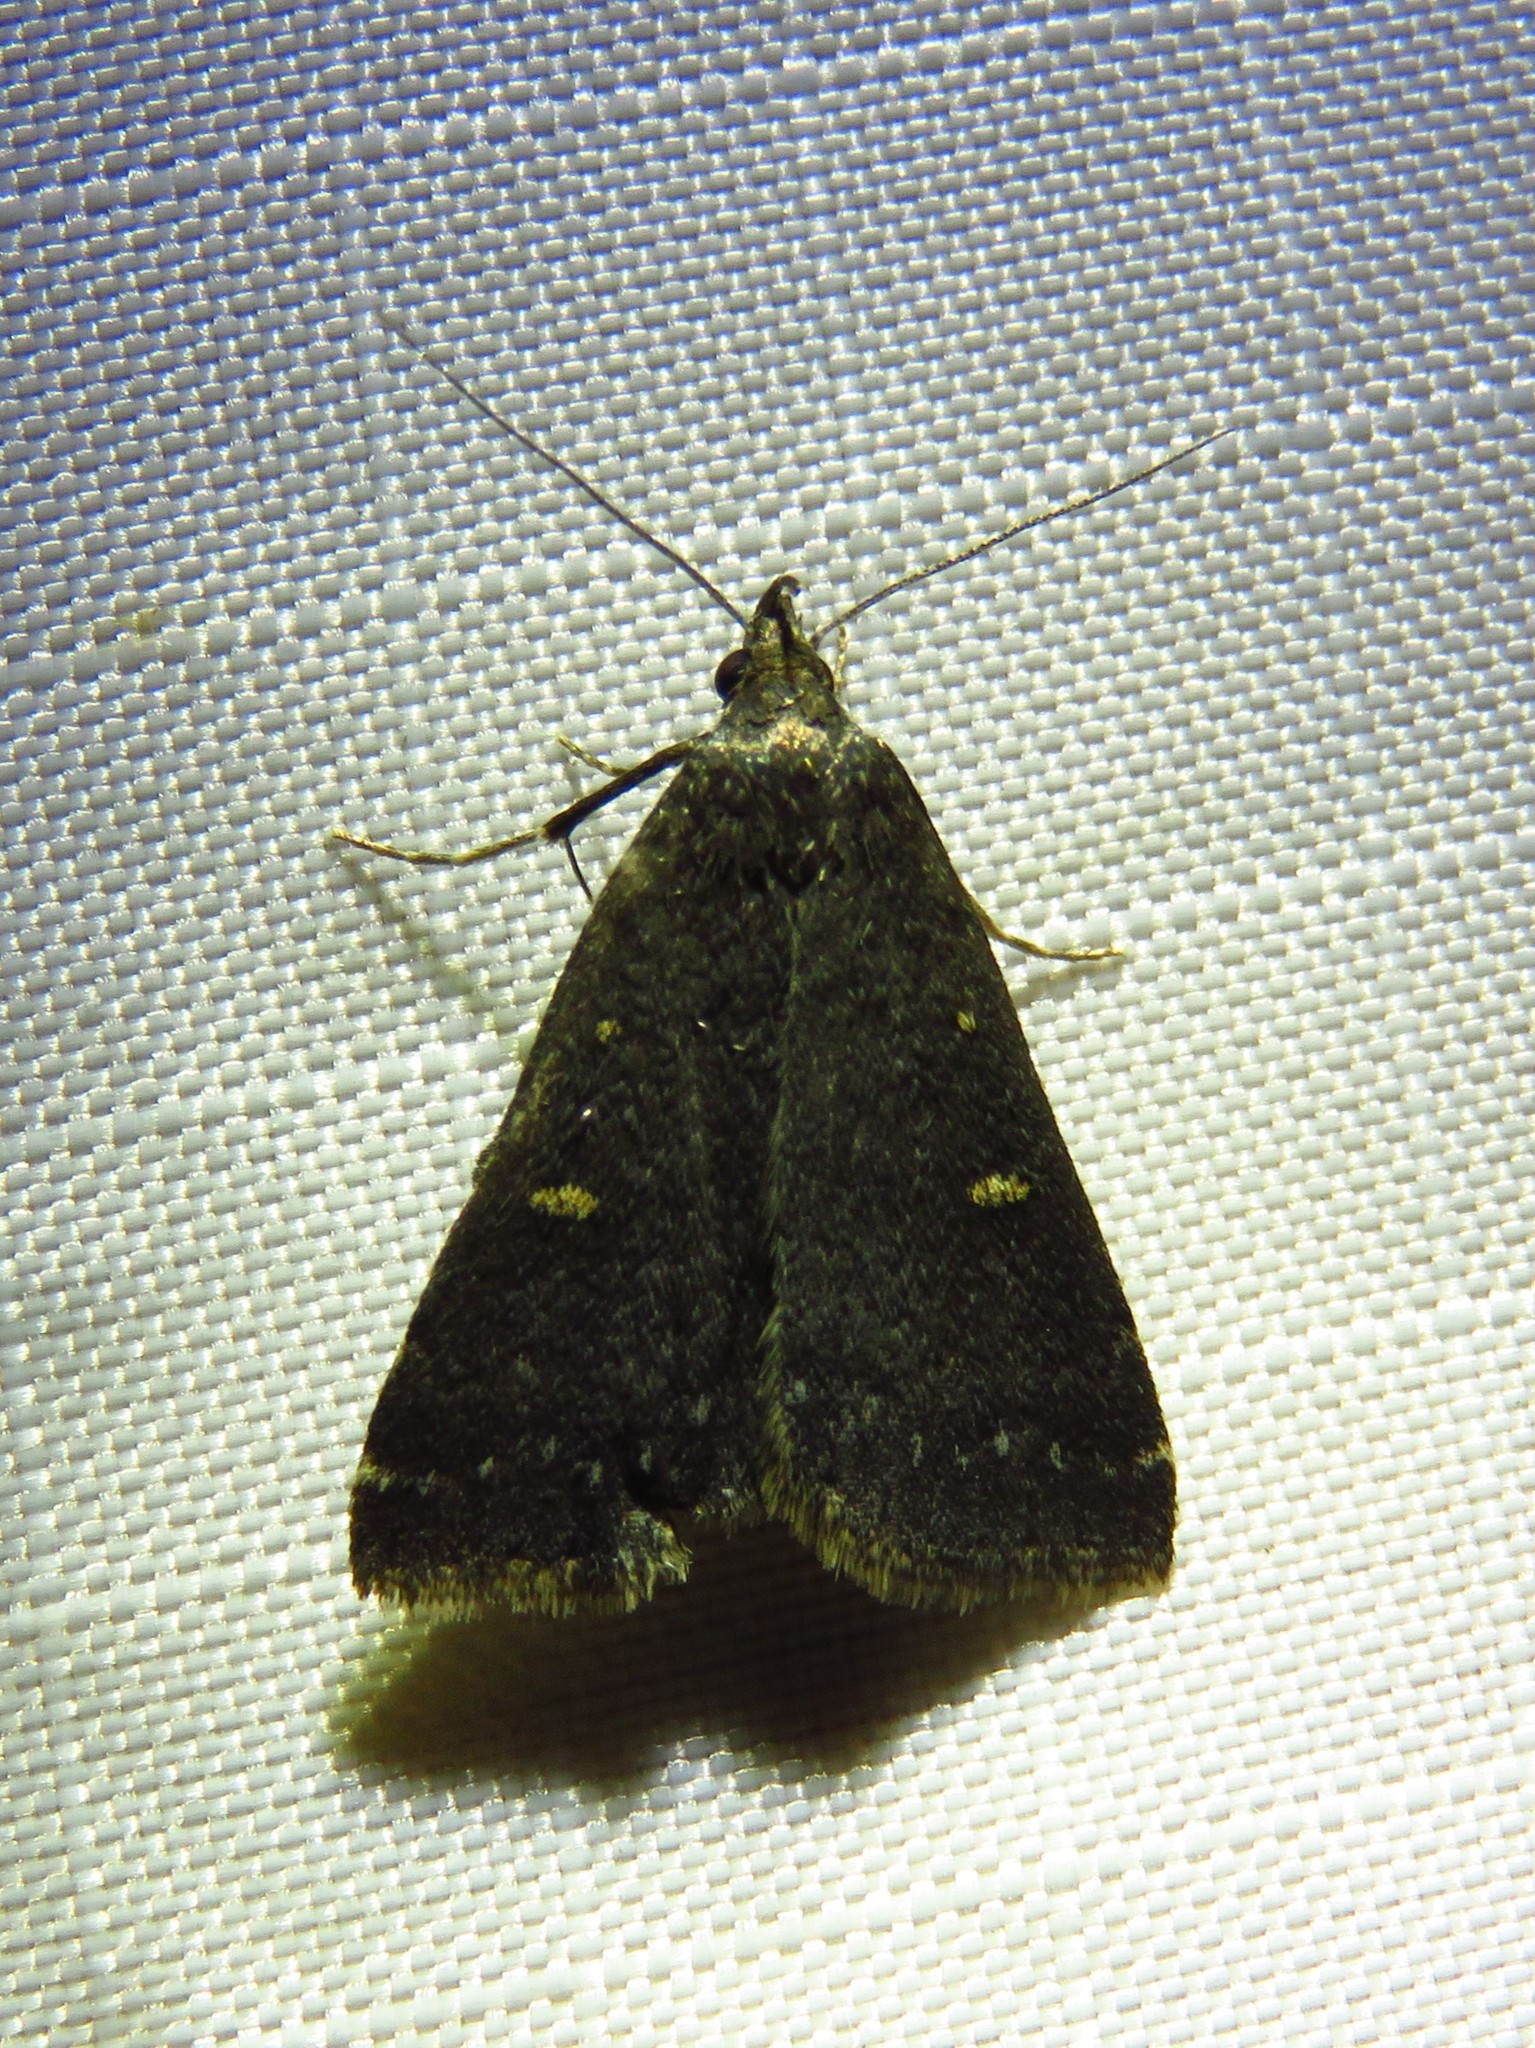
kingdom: Animalia
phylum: Arthropoda
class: Insecta
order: Lepidoptera
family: Erebidae
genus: Tetanolita
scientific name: Tetanolita mynesalis
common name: Smoky tetanolita moth
